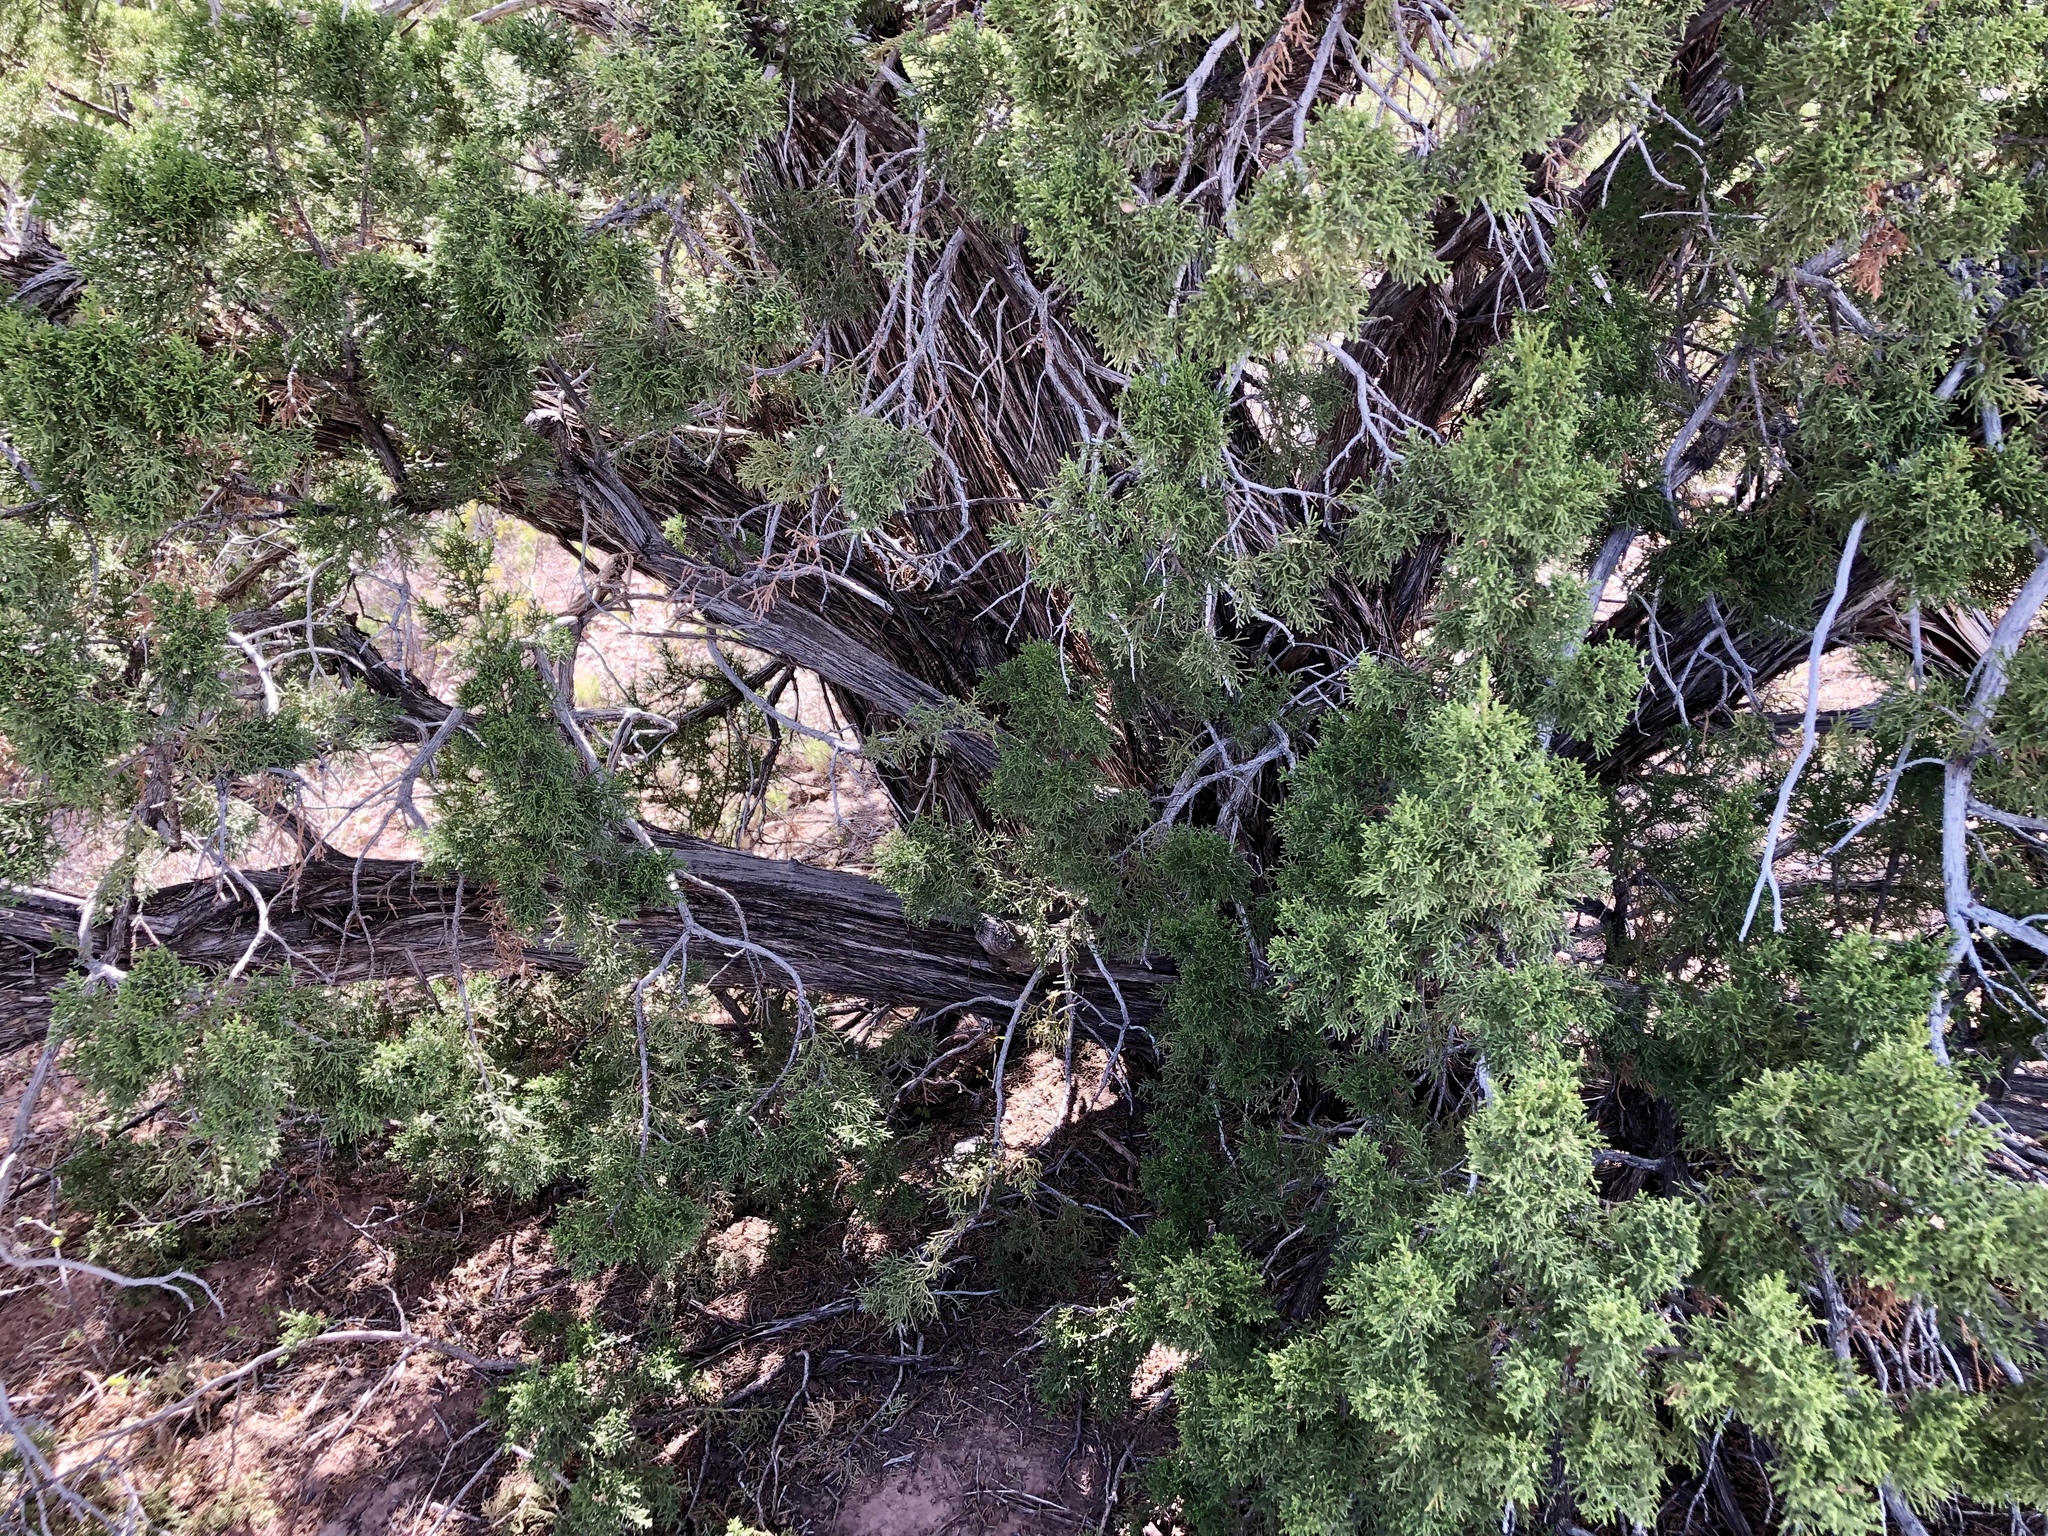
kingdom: Plantae
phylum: Tracheophyta
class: Pinopsida
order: Pinales
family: Cupressaceae
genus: Juniperus
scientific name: Juniperus monosperma
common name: One-seed juniper
